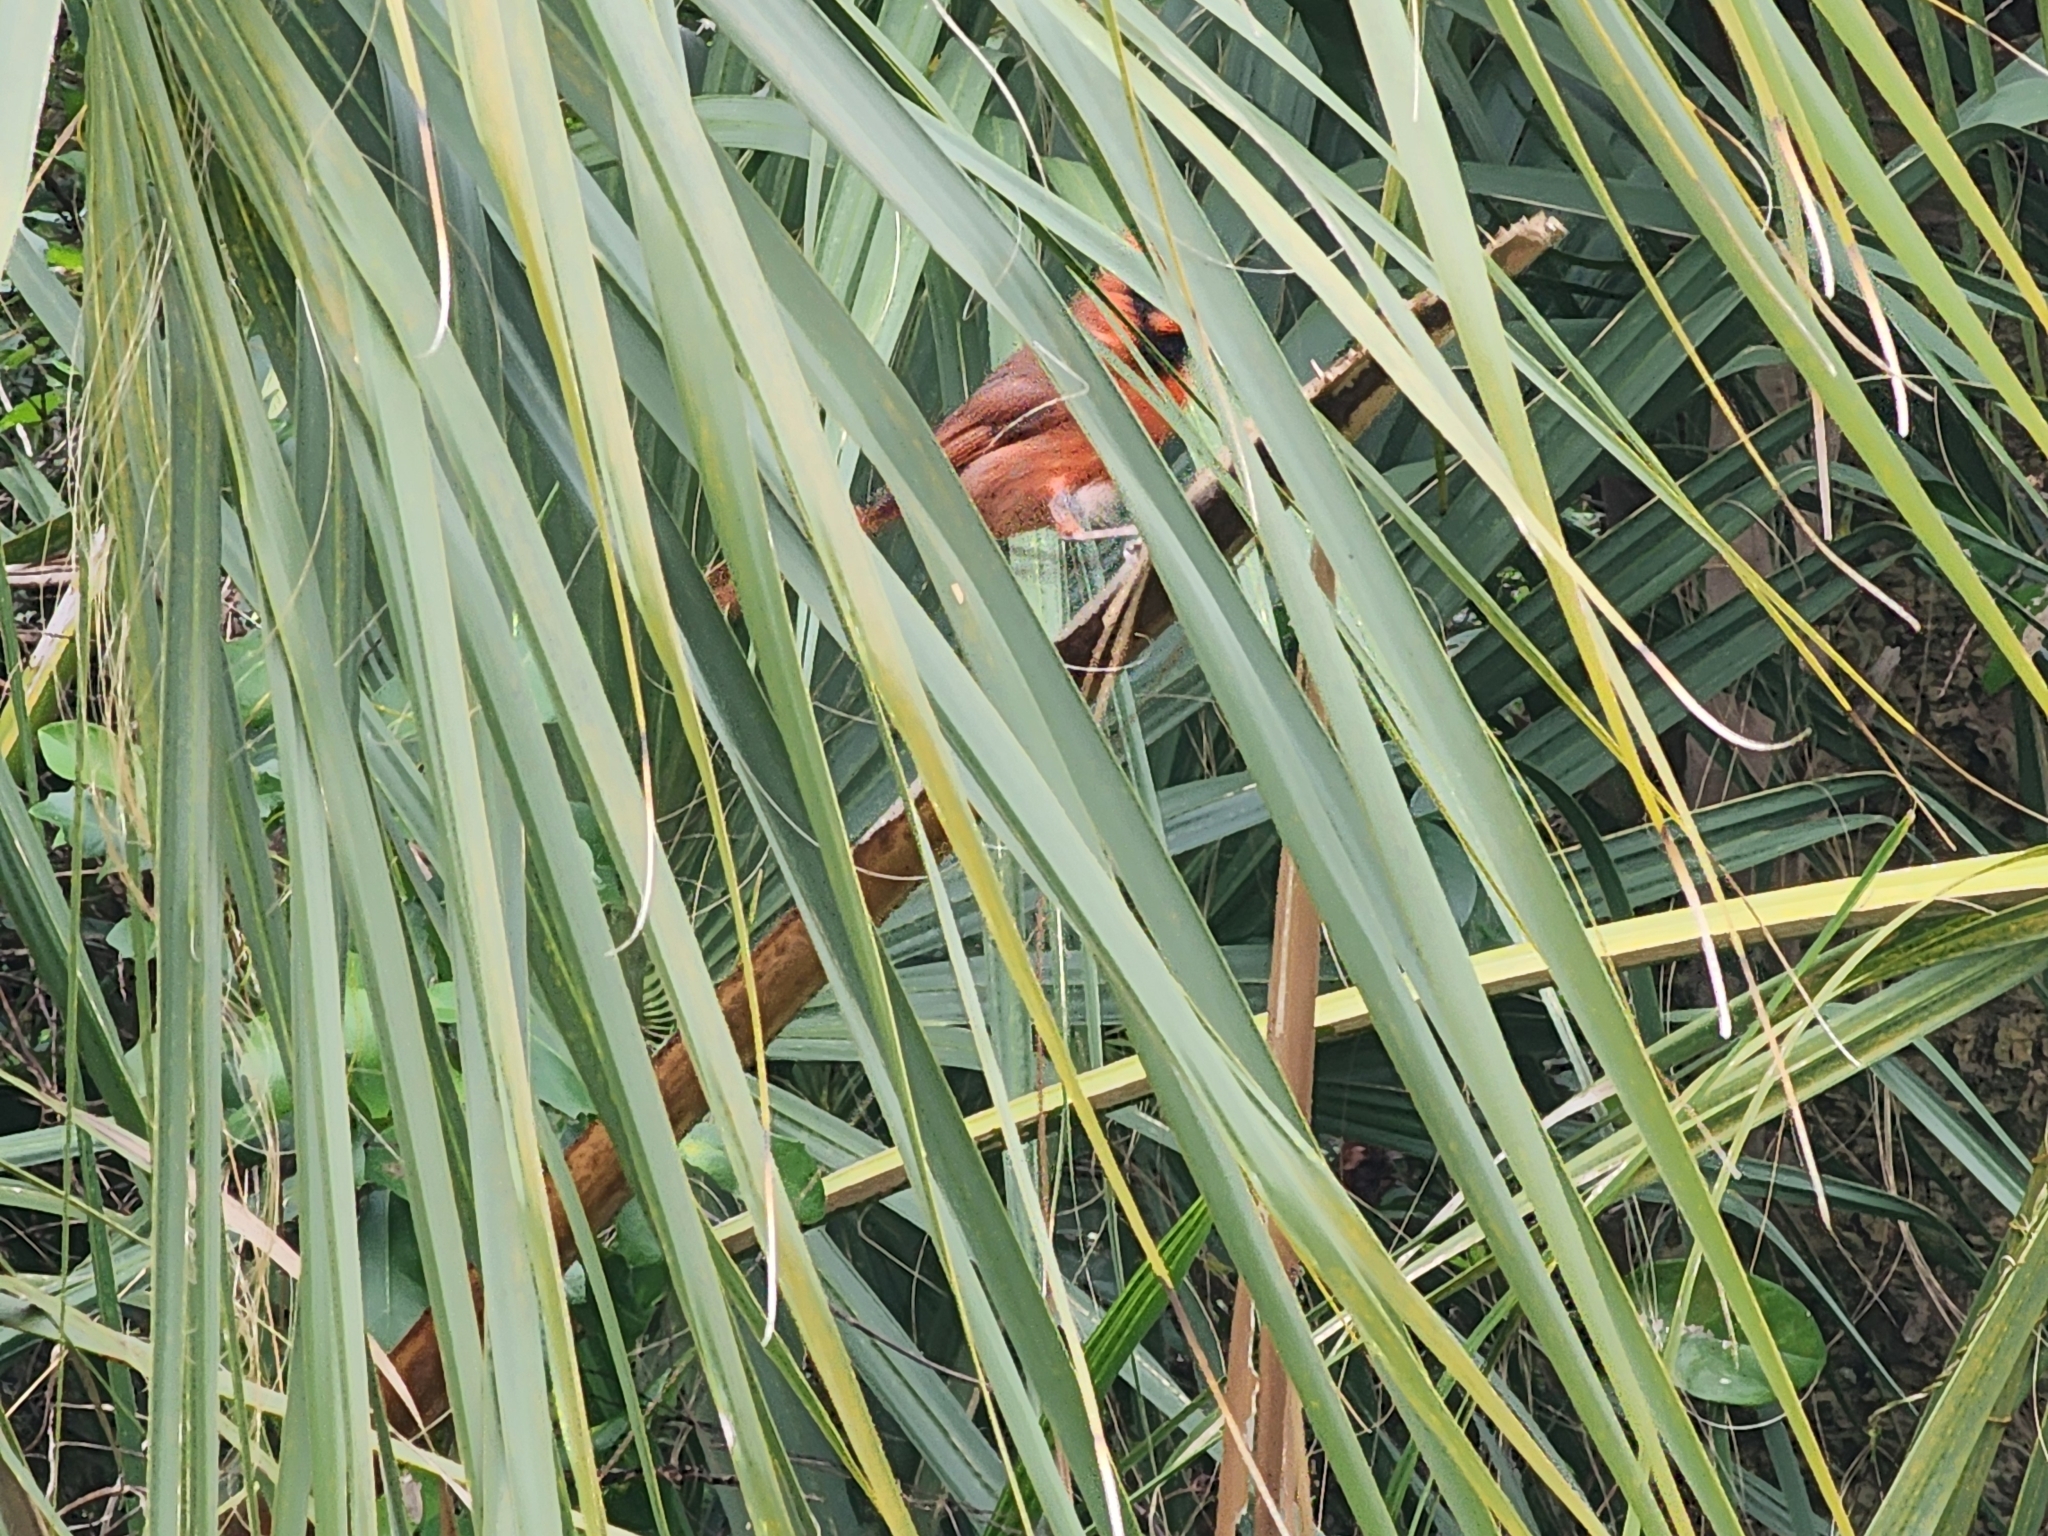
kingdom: Animalia
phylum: Chordata
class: Aves
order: Passeriformes
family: Cardinalidae
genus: Cardinalis
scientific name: Cardinalis cardinalis
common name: Northern cardinal
